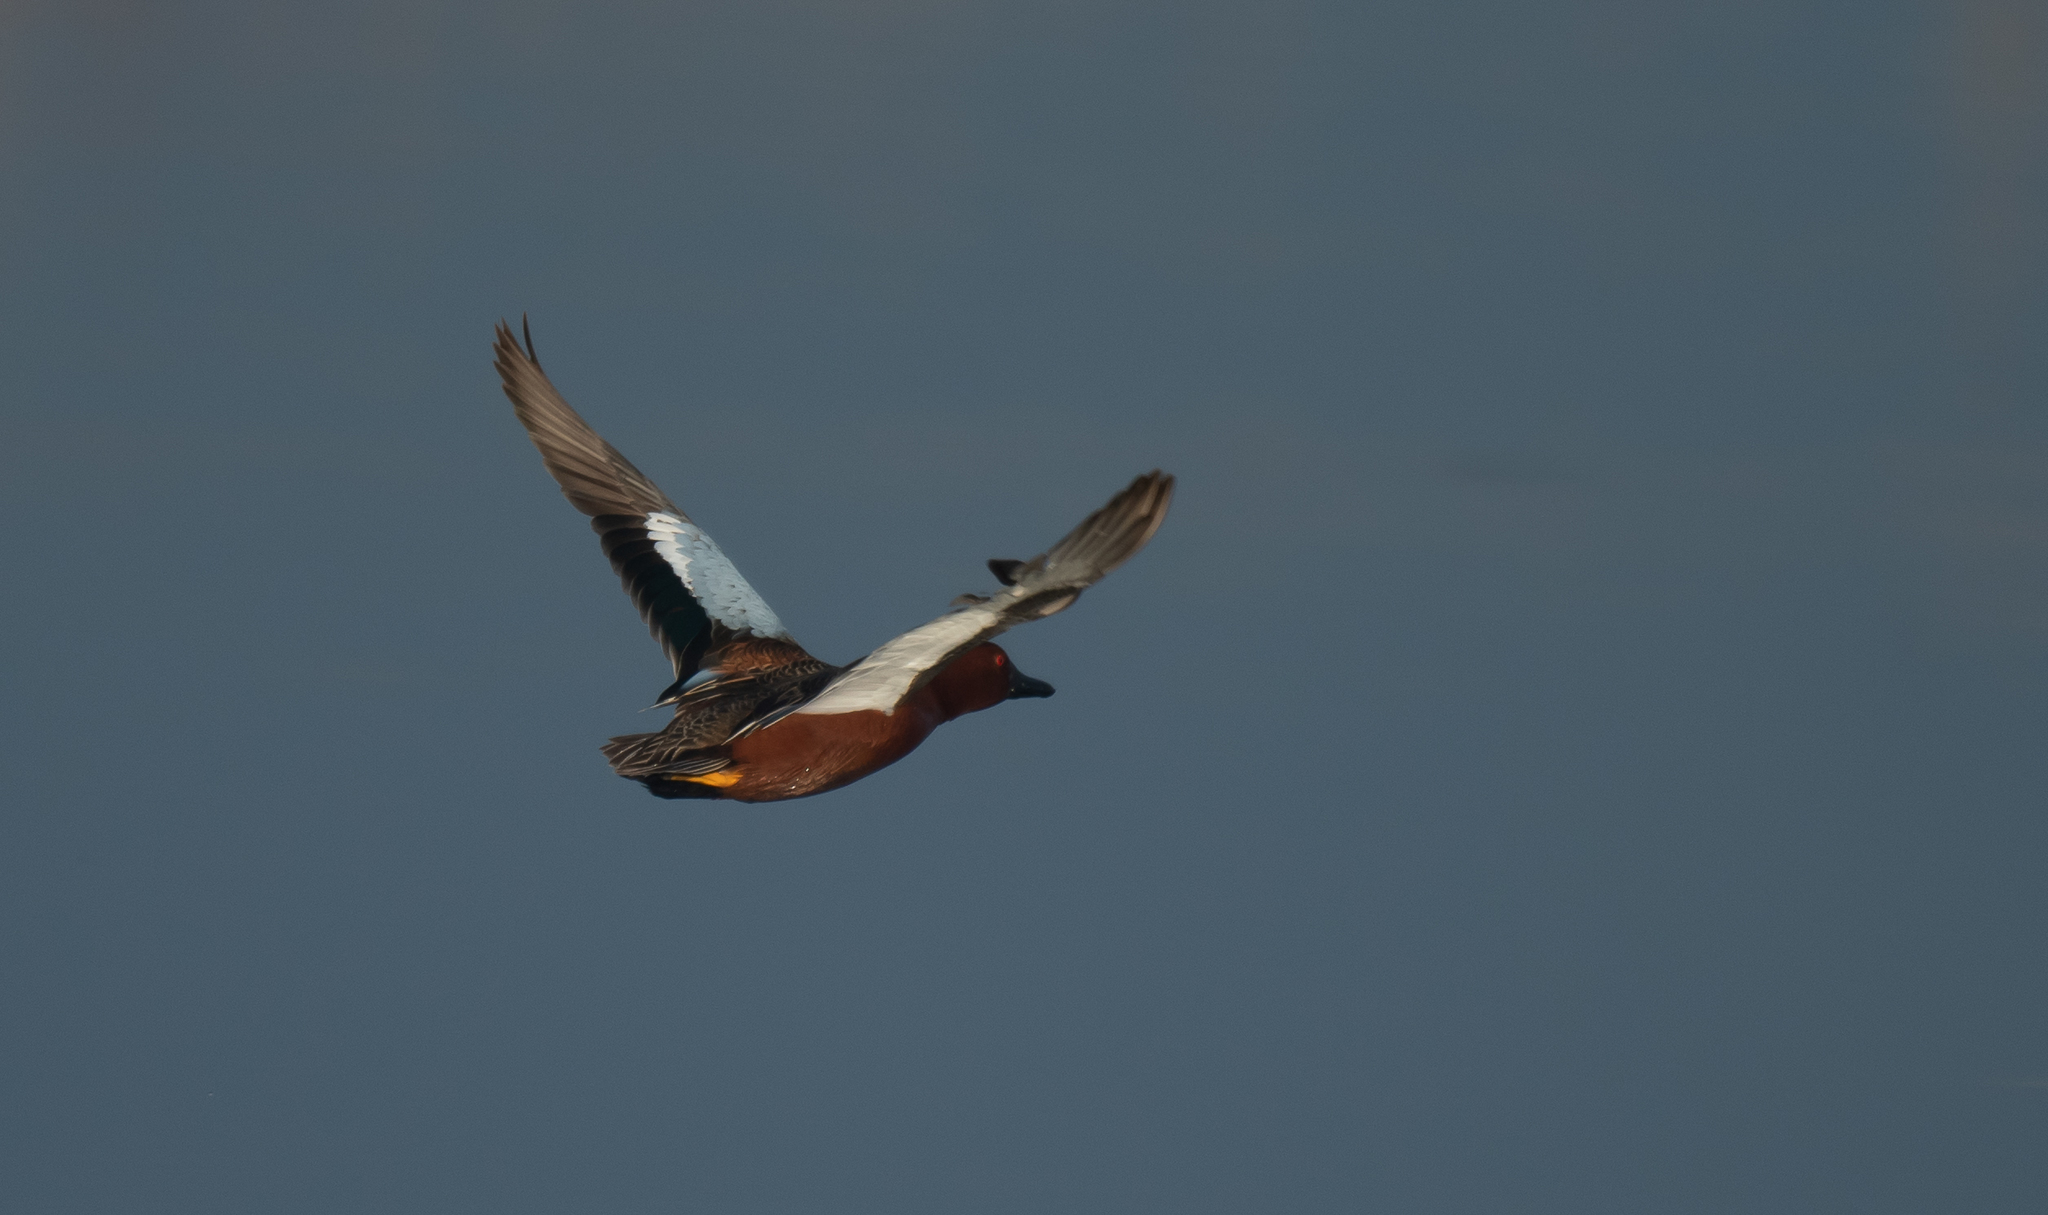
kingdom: Animalia
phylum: Chordata
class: Aves
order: Anseriformes
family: Anatidae
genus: Spatula
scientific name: Spatula cyanoptera
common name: Cinnamon teal
